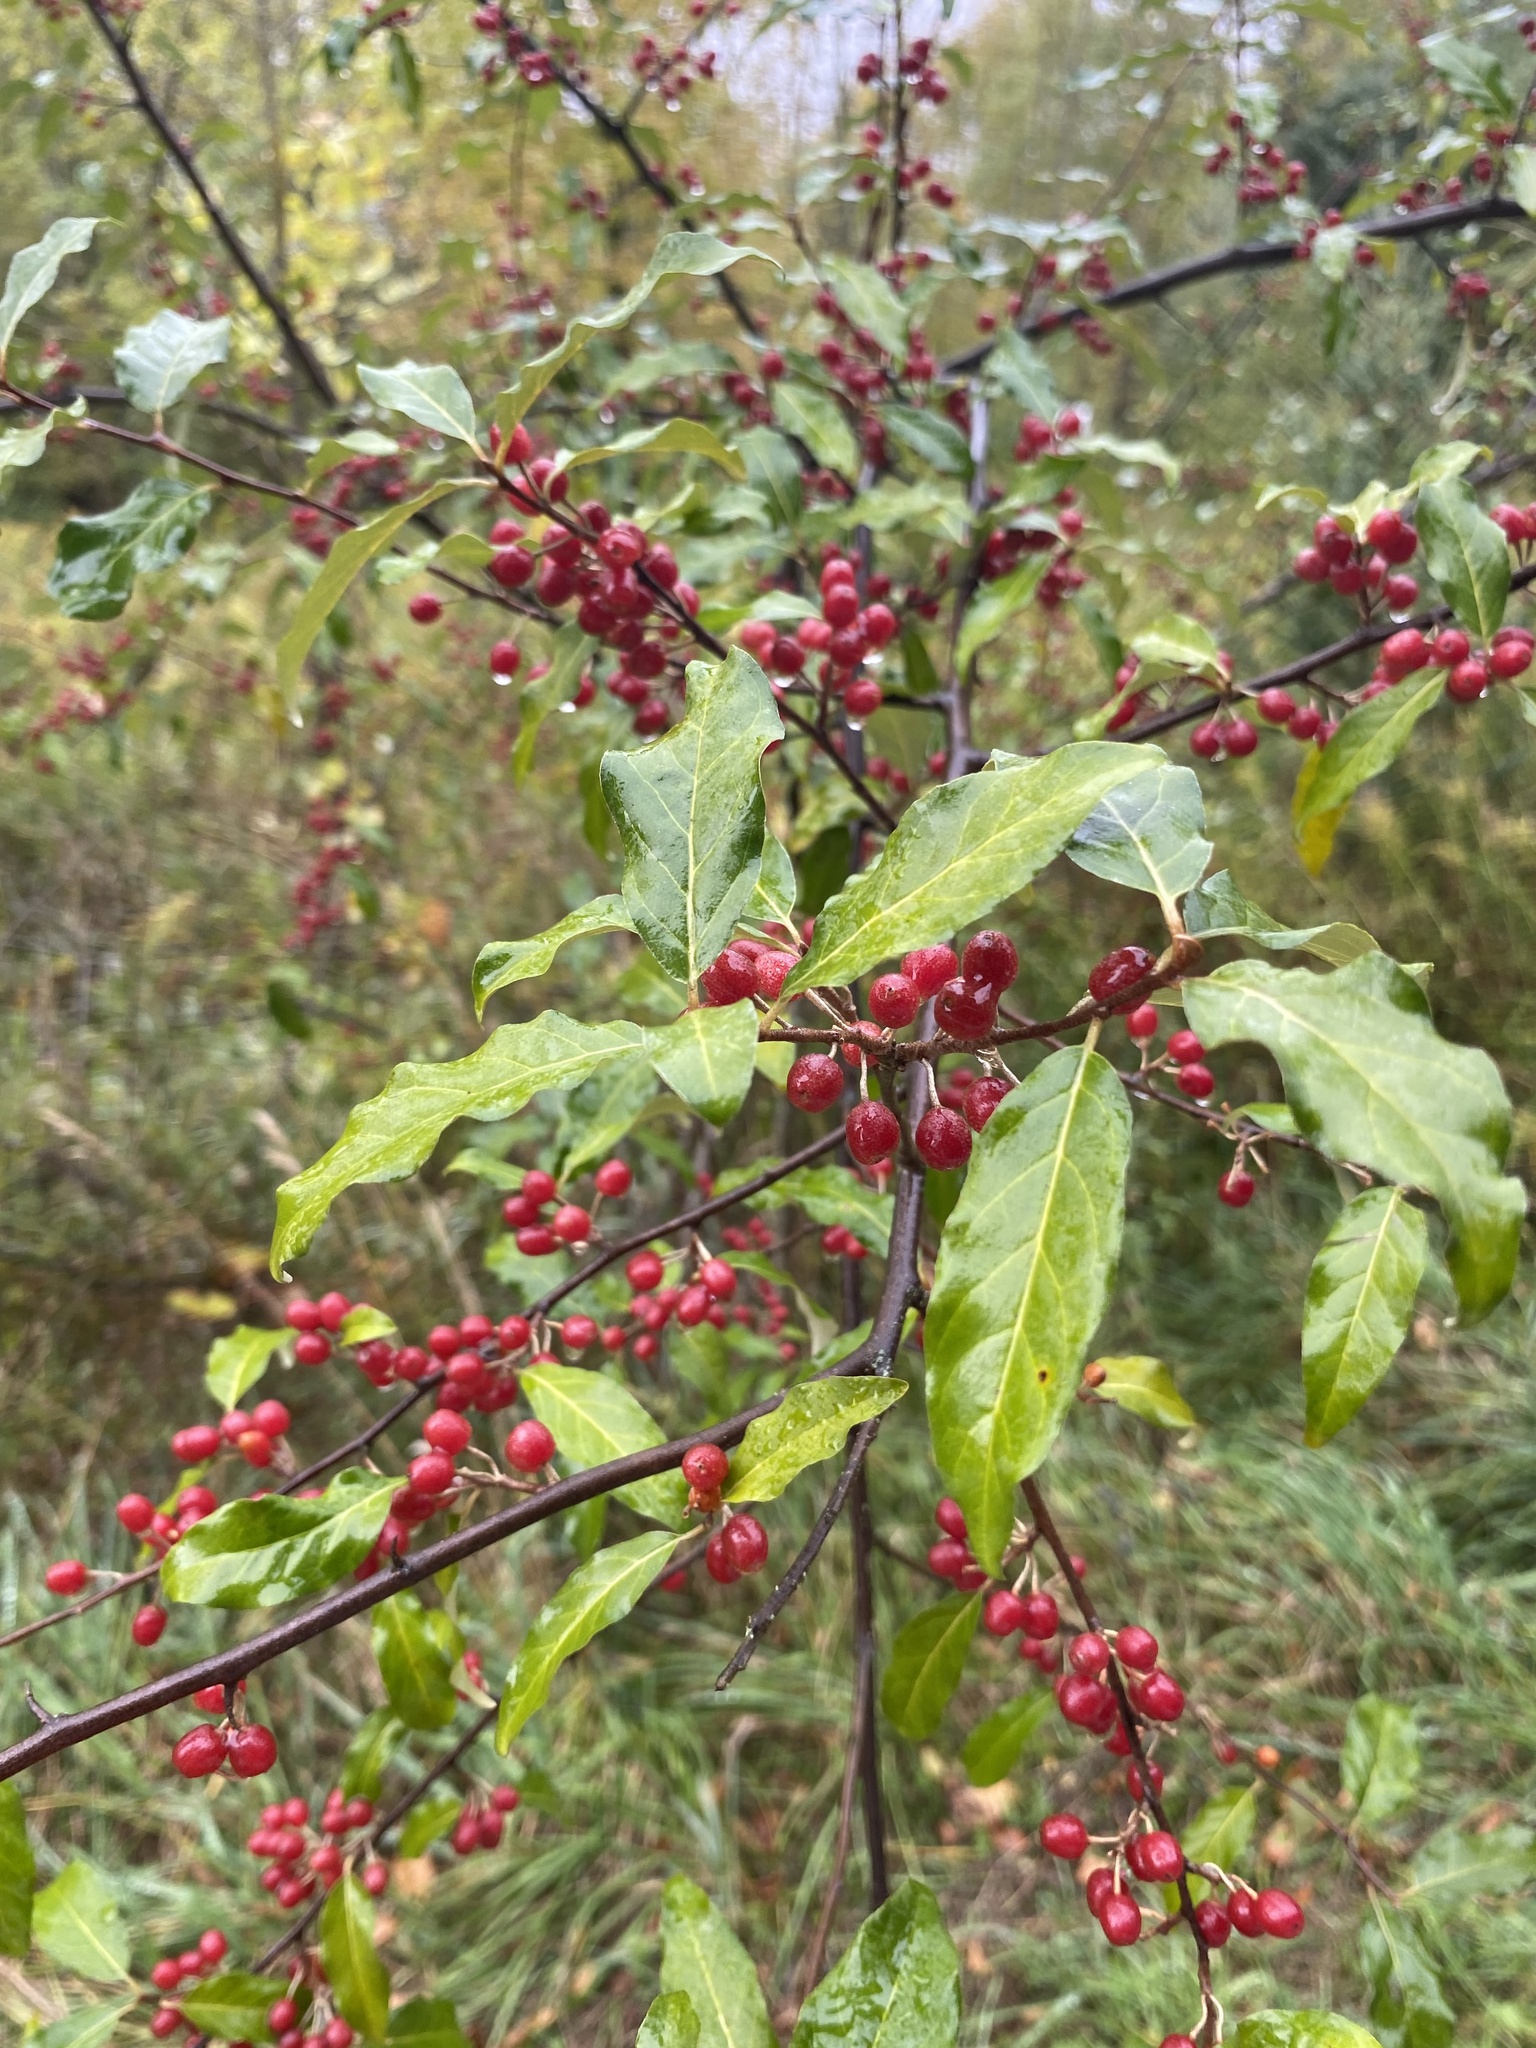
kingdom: Plantae
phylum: Tracheophyta
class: Magnoliopsida
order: Rosales
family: Elaeagnaceae
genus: Elaeagnus
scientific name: Elaeagnus umbellata
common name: Autumn olive
